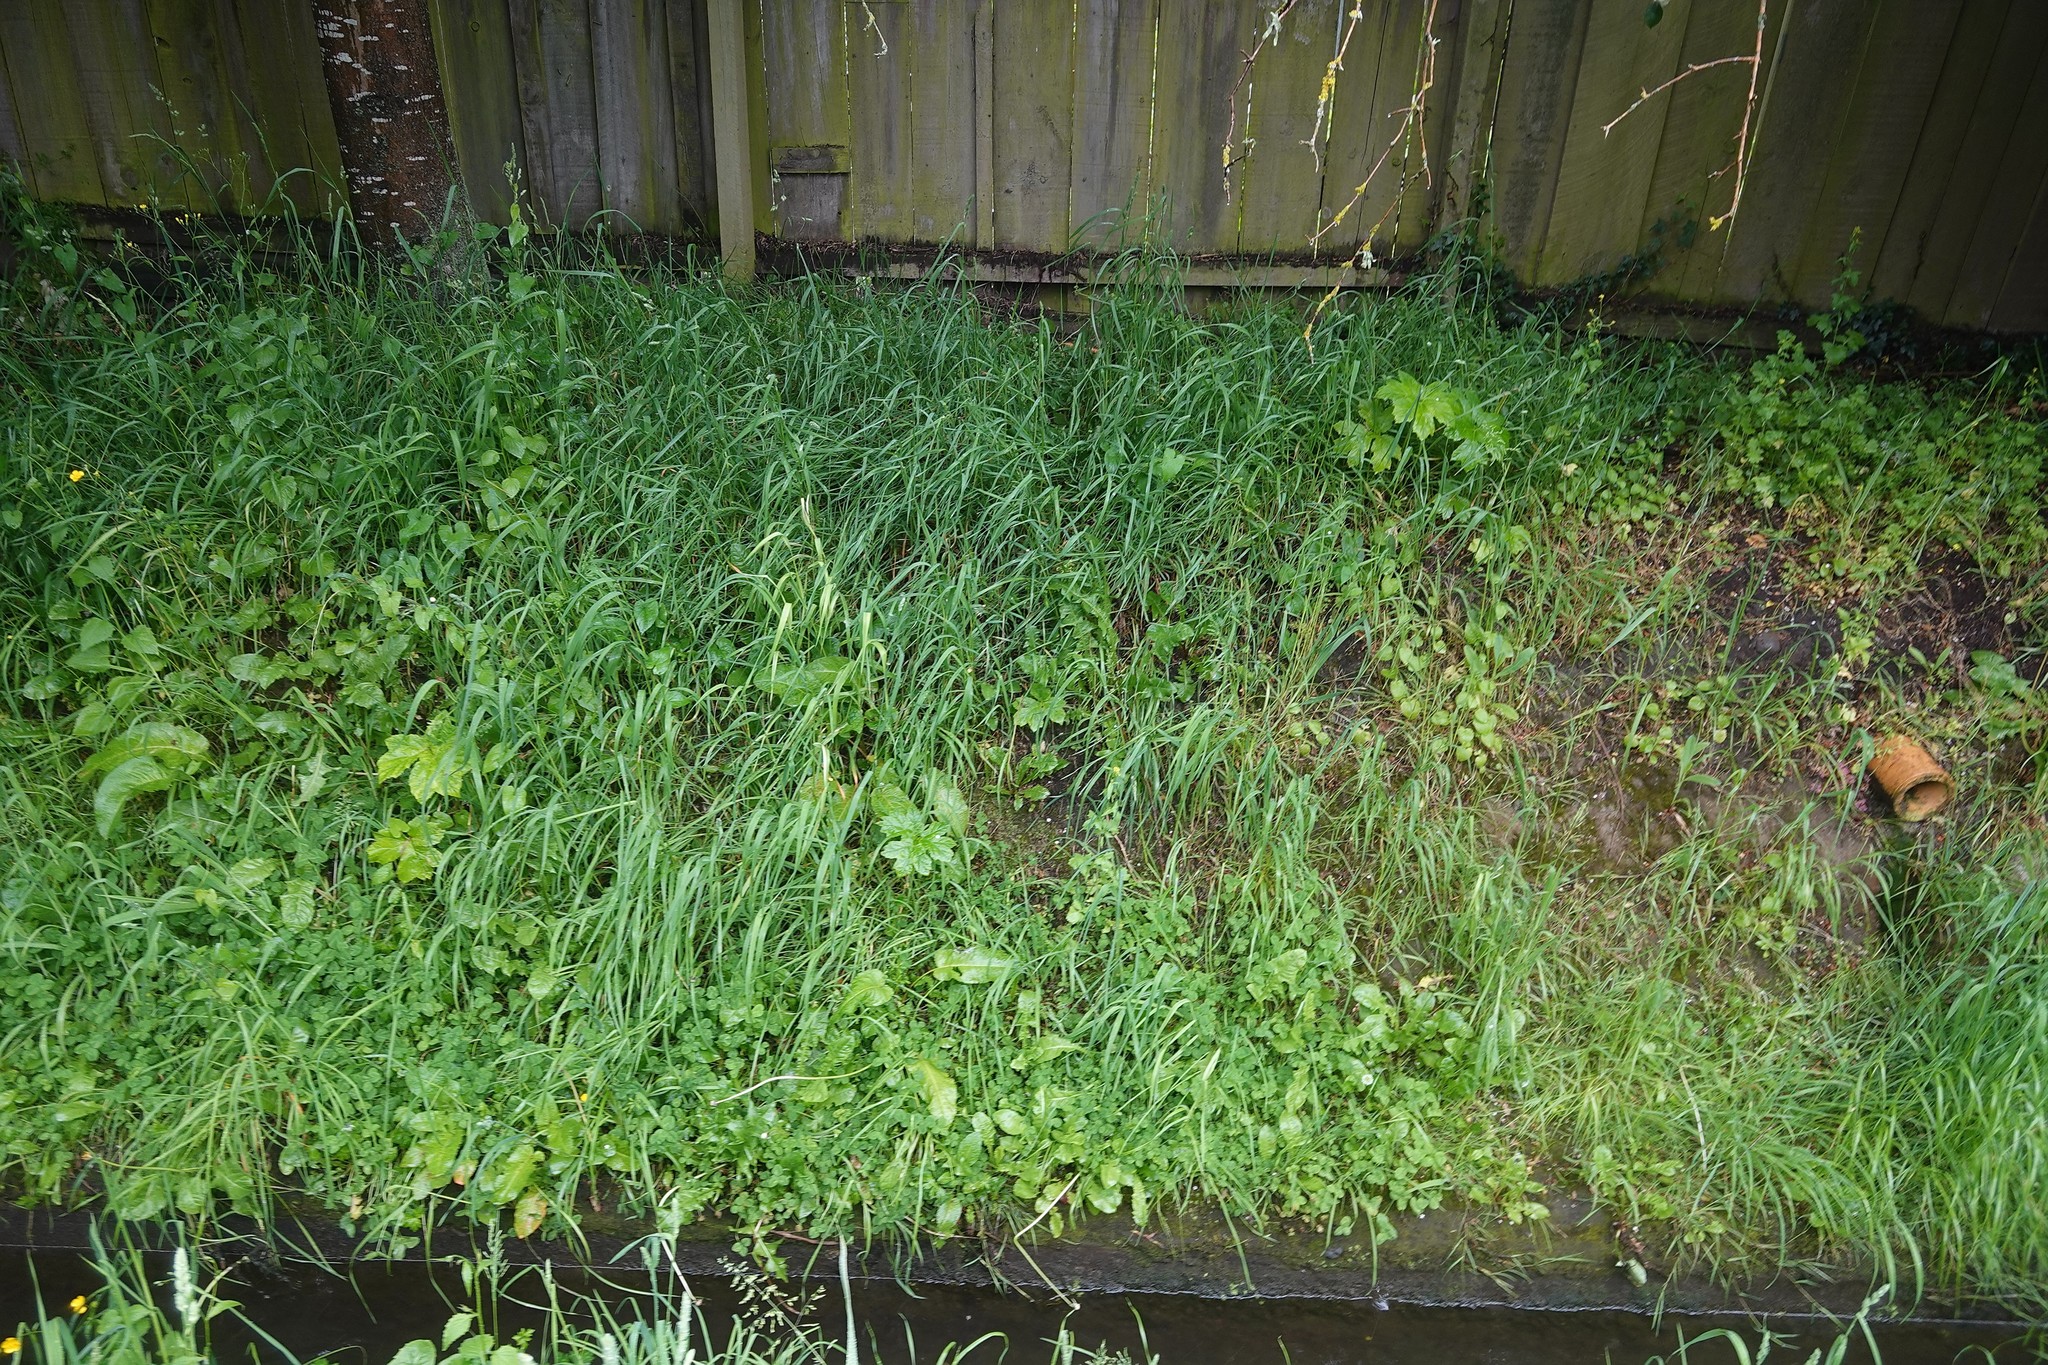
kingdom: Plantae
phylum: Tracheophyta
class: Magnoliopsida
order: Apiales
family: Apiaceae
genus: Heracleum
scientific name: Heracleum mantegazzianum
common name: Giant hogweed
